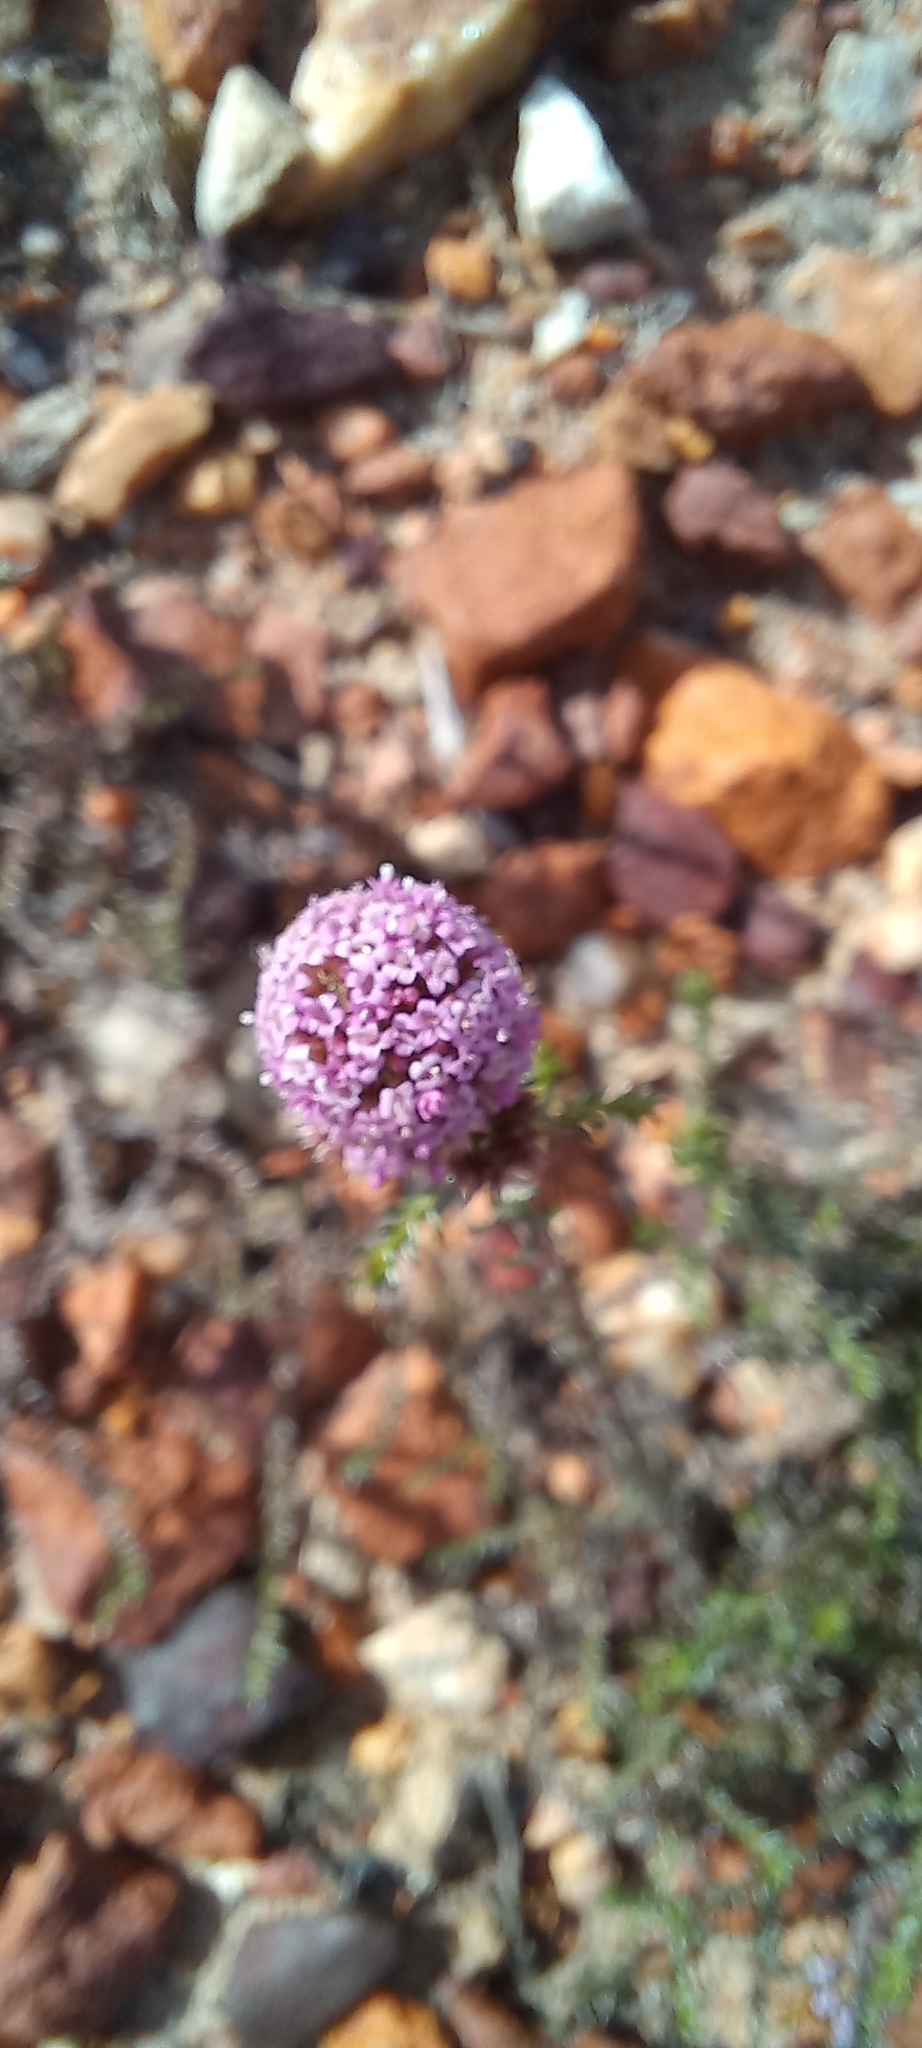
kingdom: Plantae
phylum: Tracheophyta
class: Magnoliopsida
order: Asterales
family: Asteraceae
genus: Stoebe
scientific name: Stoebe capitata
